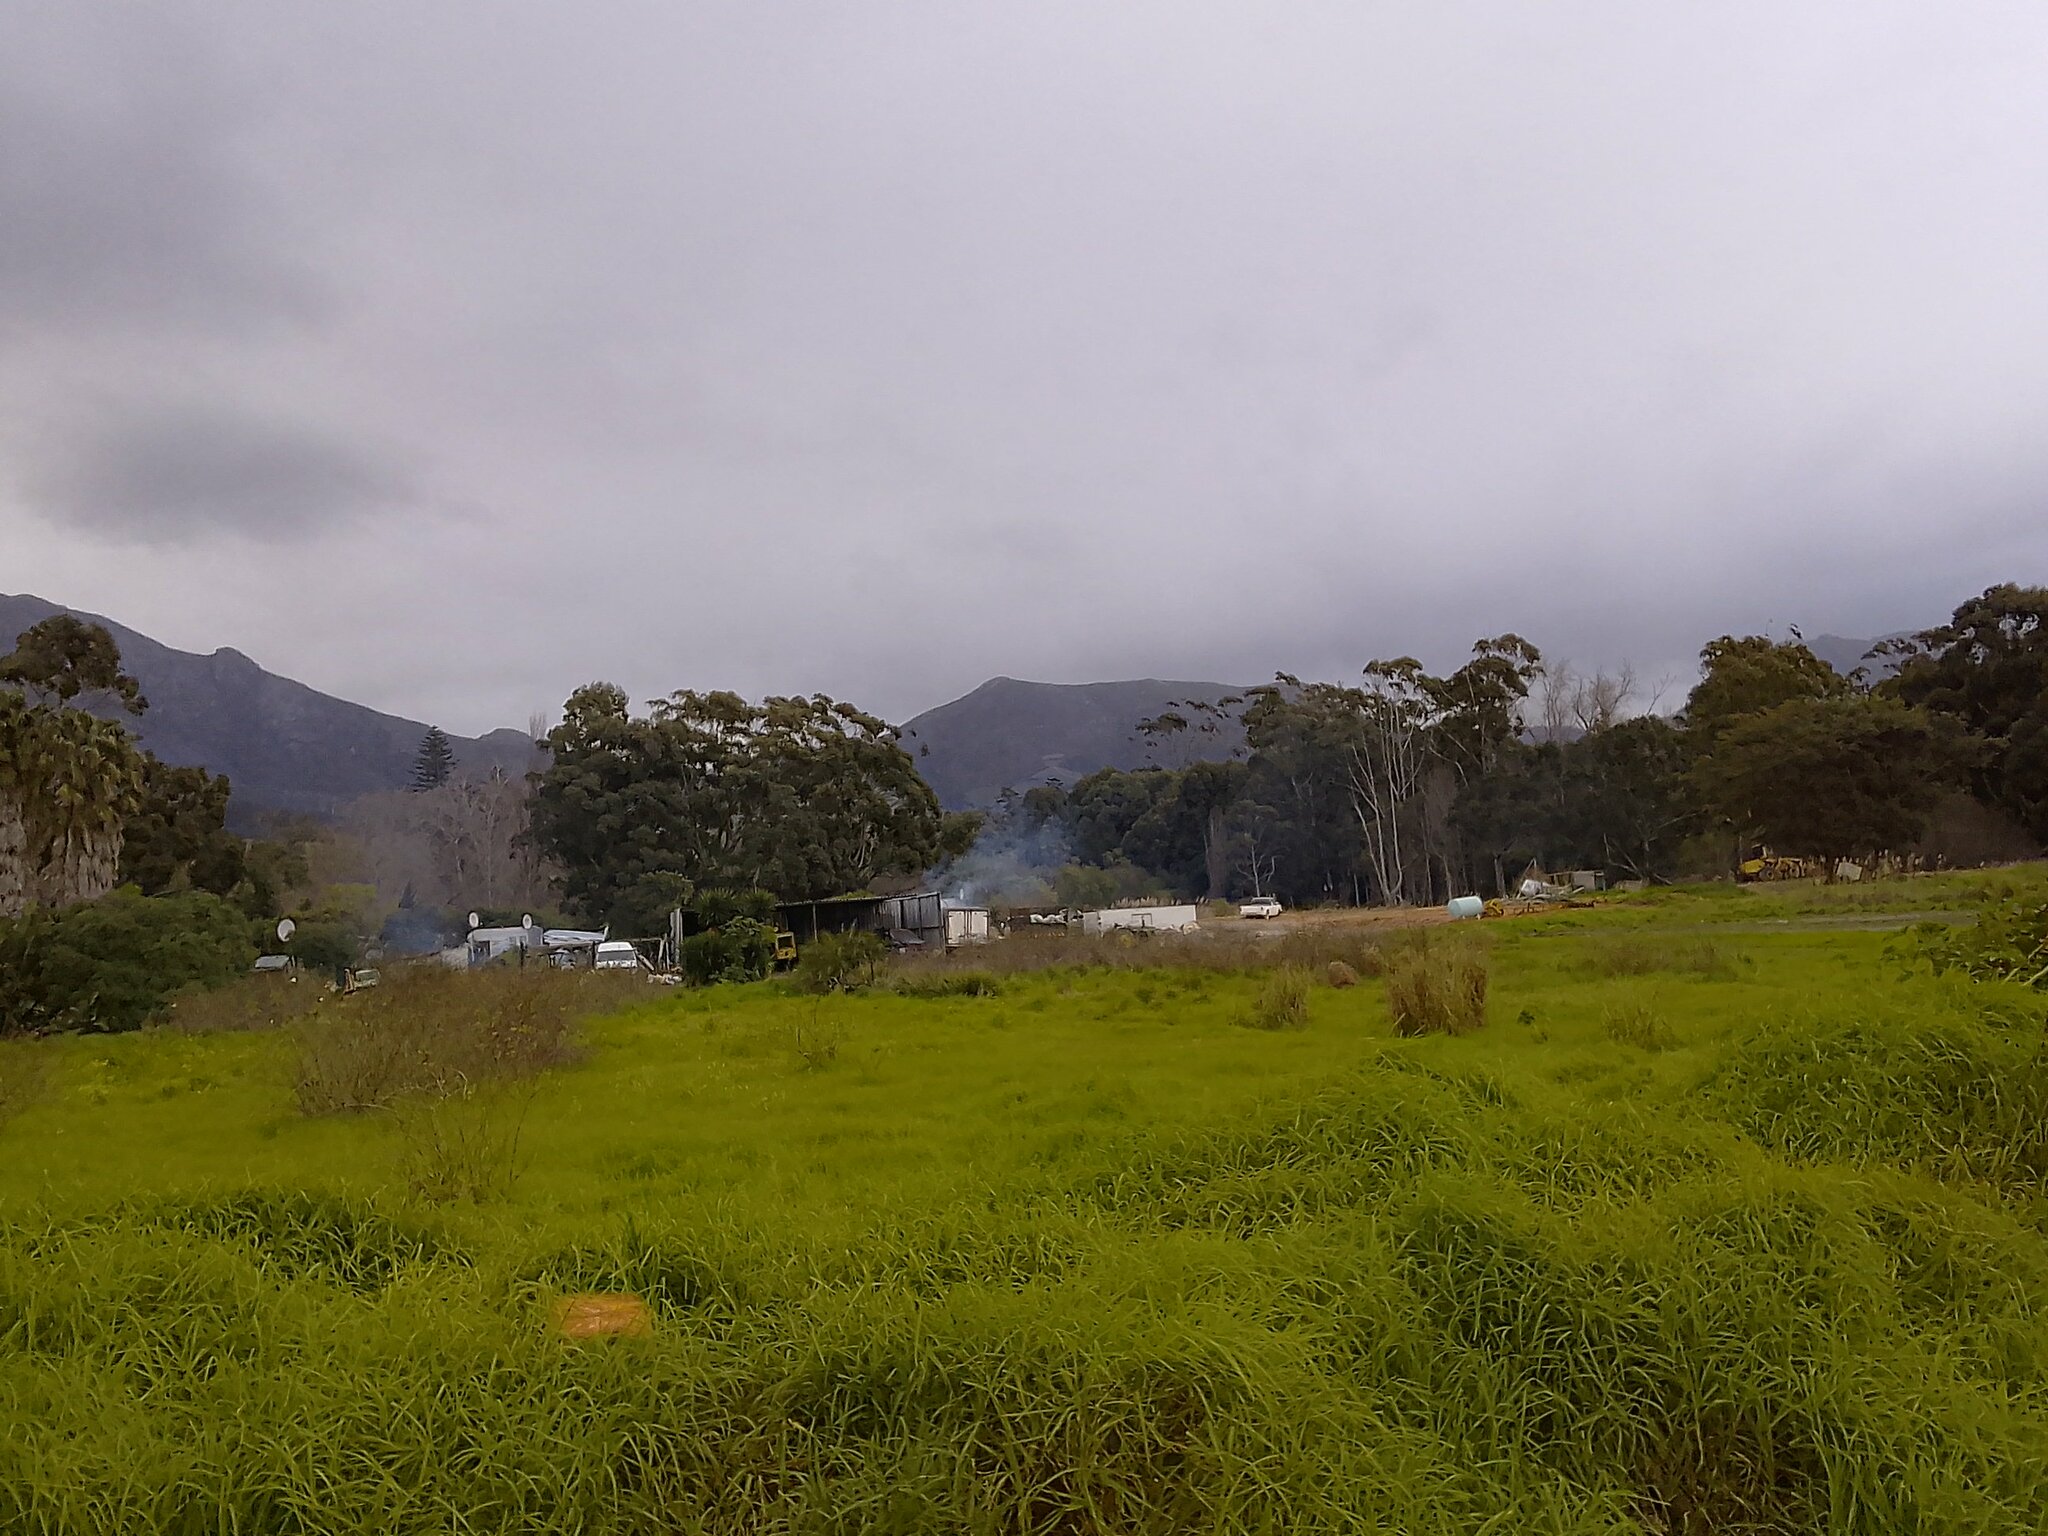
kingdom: Plantae
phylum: Tracheophyta
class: Liliopsida
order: Poales
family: Poaceae
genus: Cenchrus
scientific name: Cenchrus clandestinus
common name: Kikuyugrass
